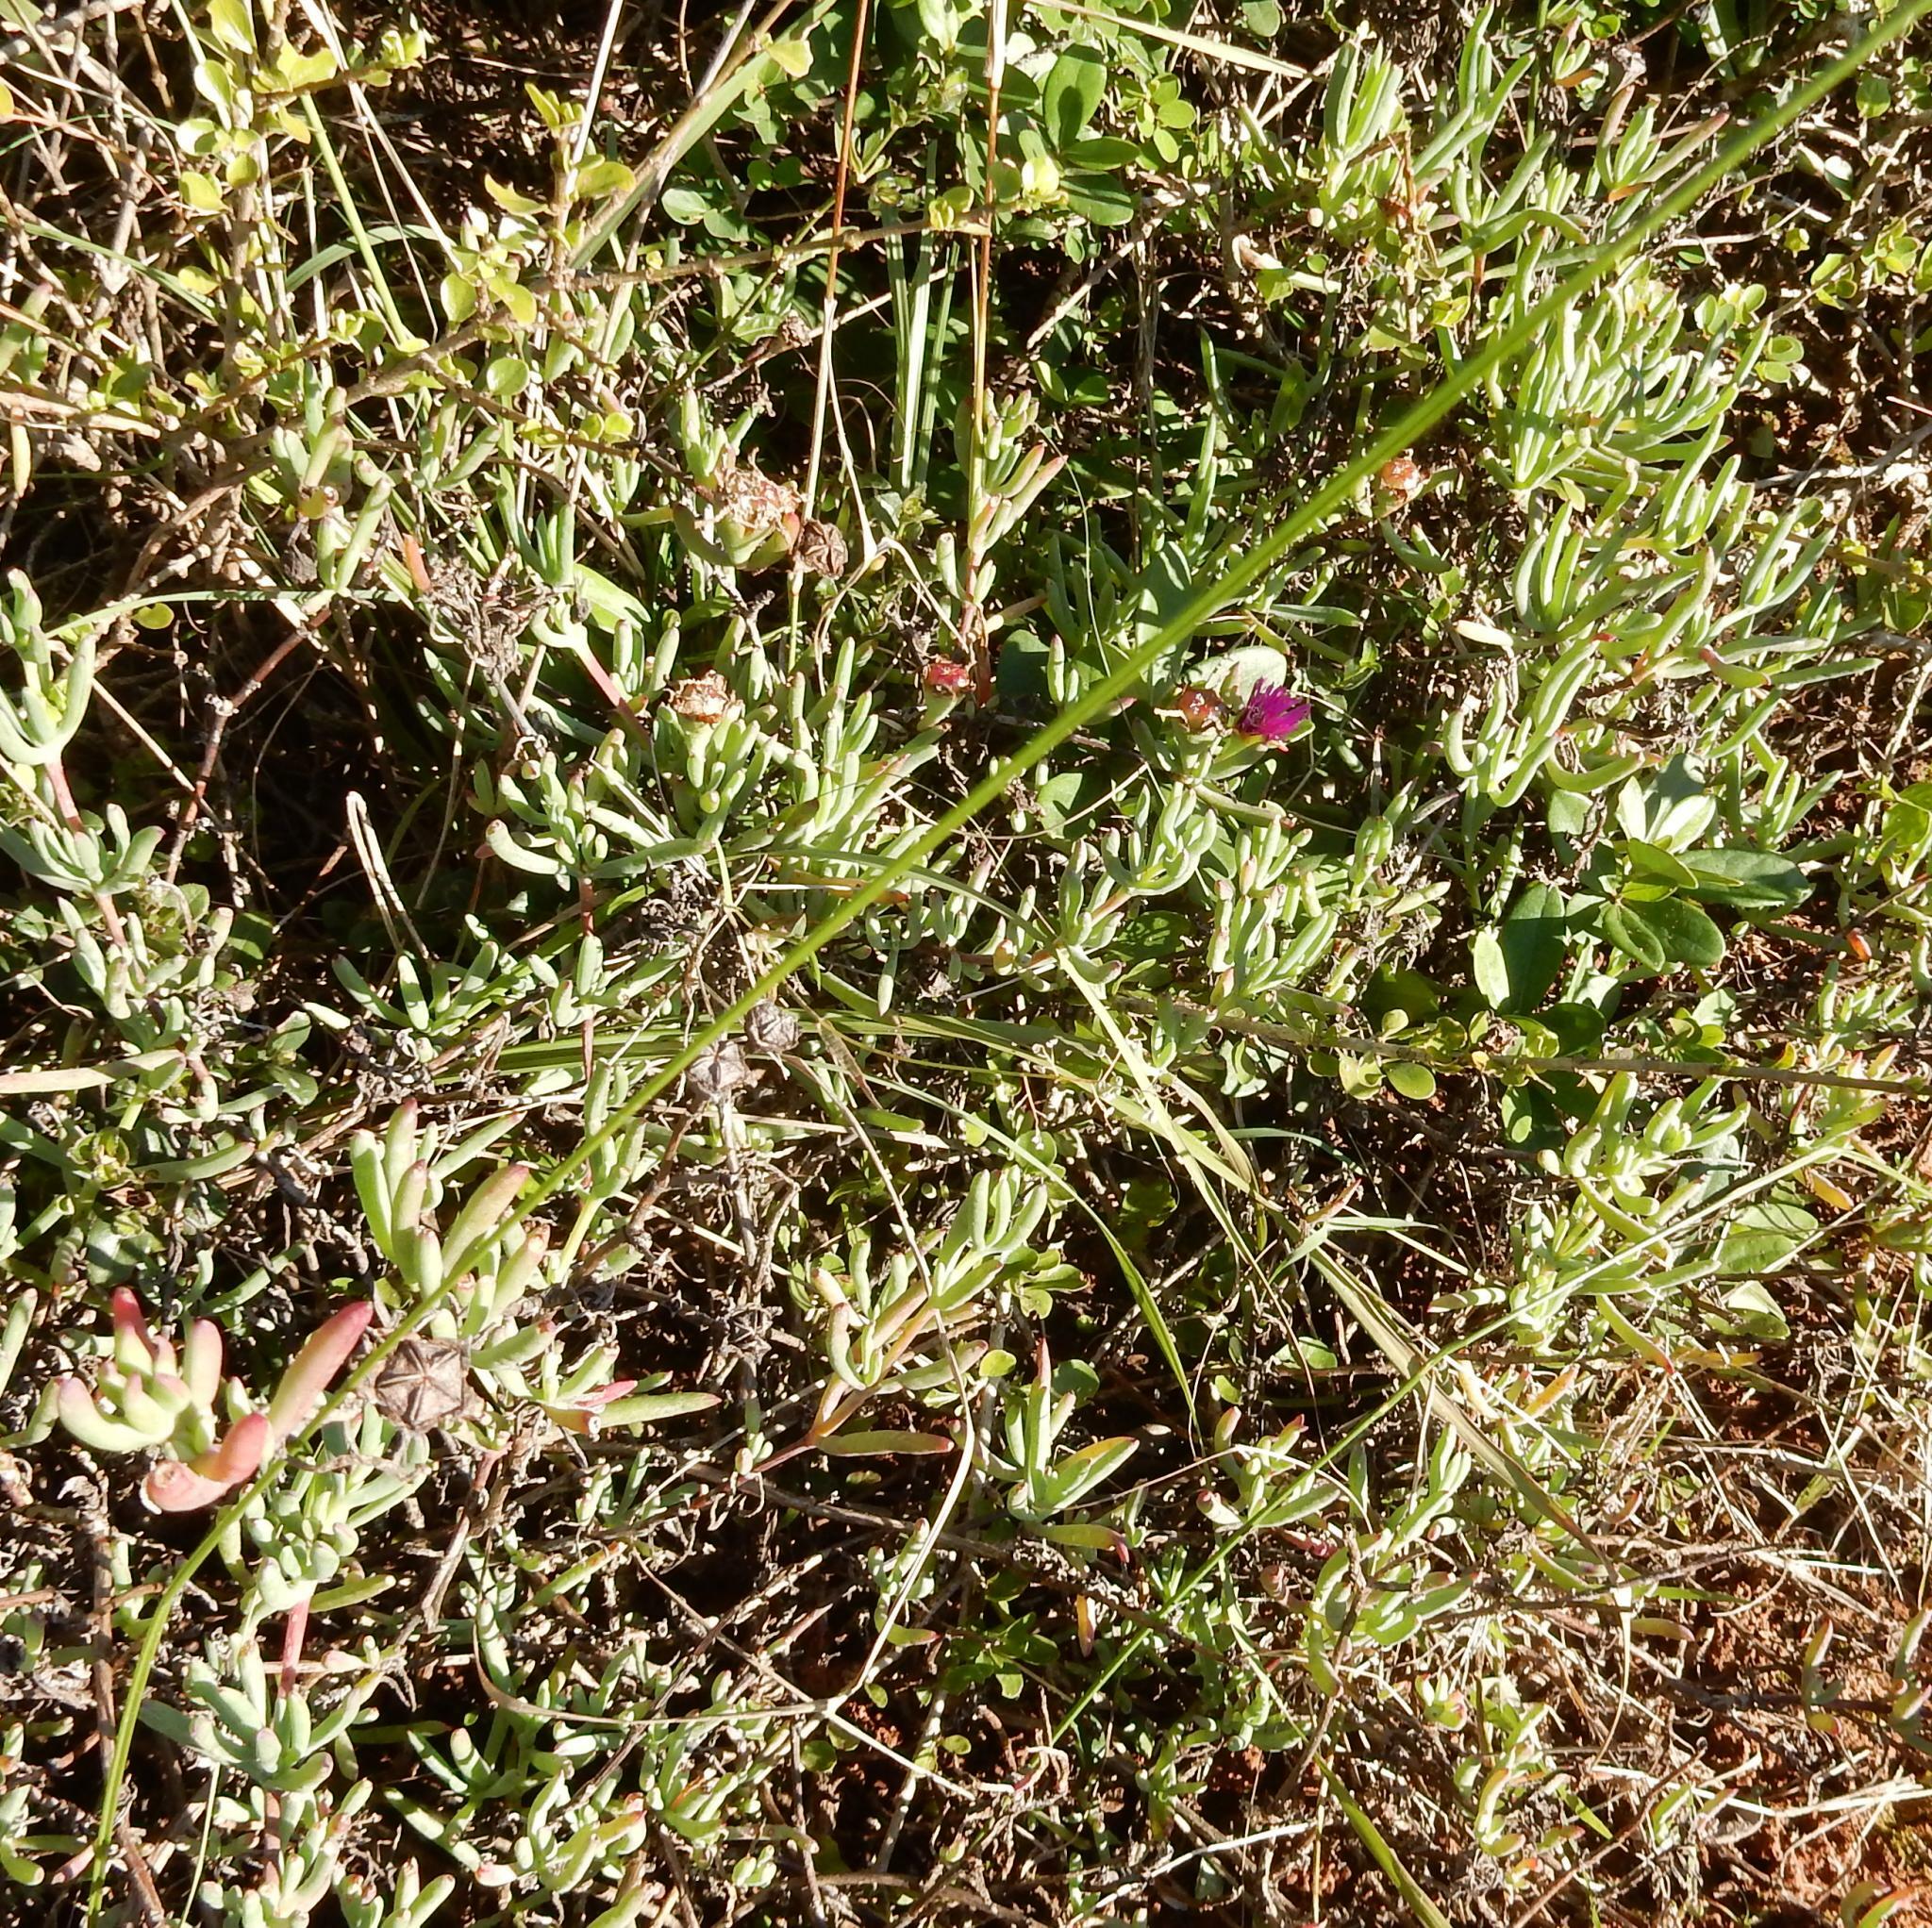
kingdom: Plantae
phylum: Tracheophyta
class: Magnoliopsida
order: Caryophyllales
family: Aizoaceae
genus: Lampranthus
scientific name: Lampranthus stayneri
